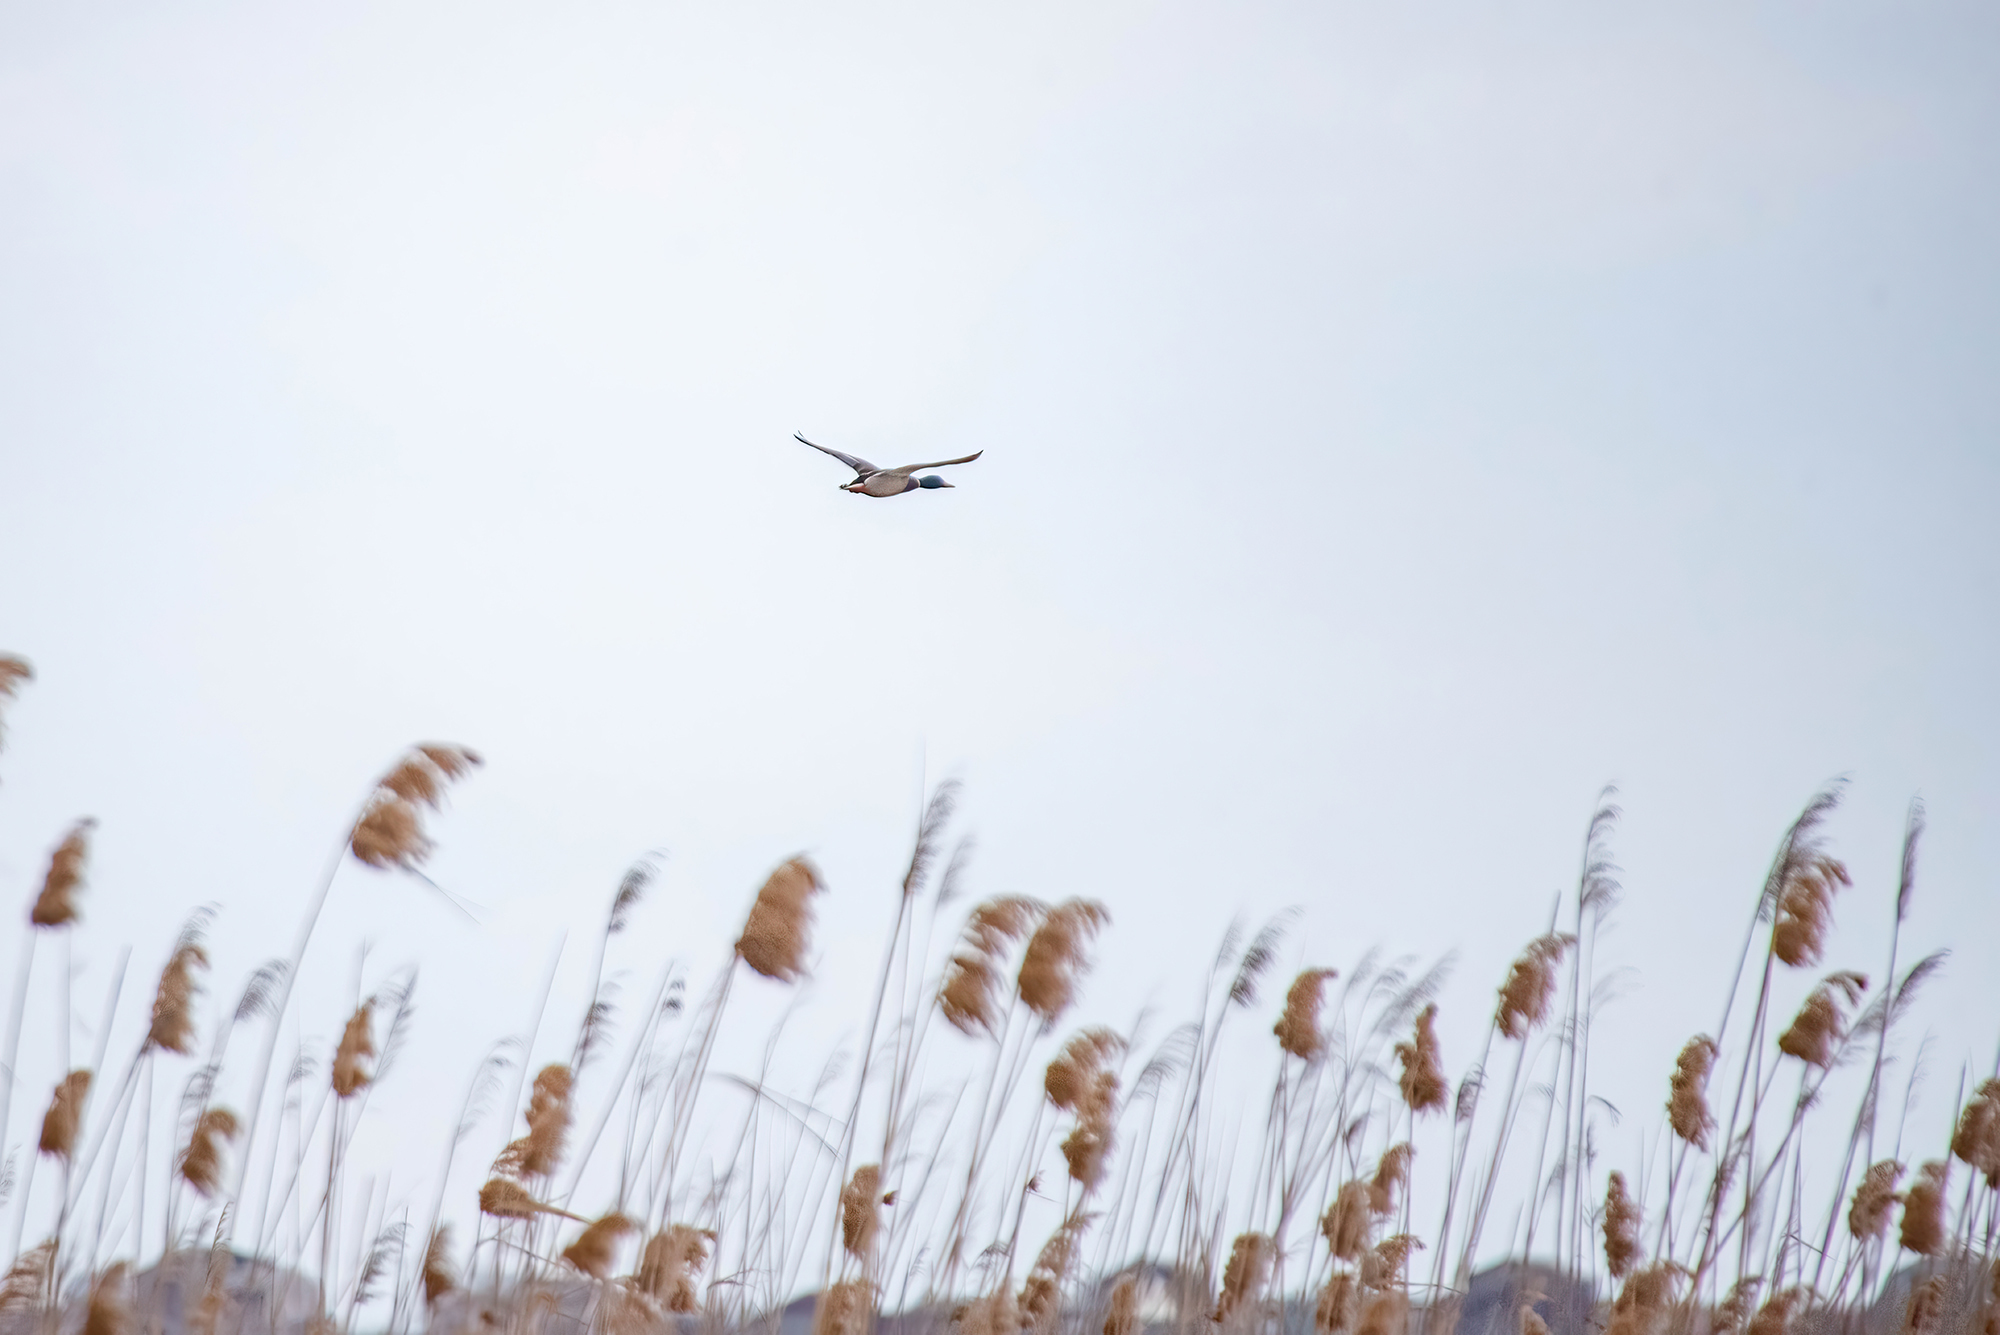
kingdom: Animalia
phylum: Chordata
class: Aves
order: Anseriformes
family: Anatidae
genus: Anas
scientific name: Anas platyrhynchos
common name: Mallard
